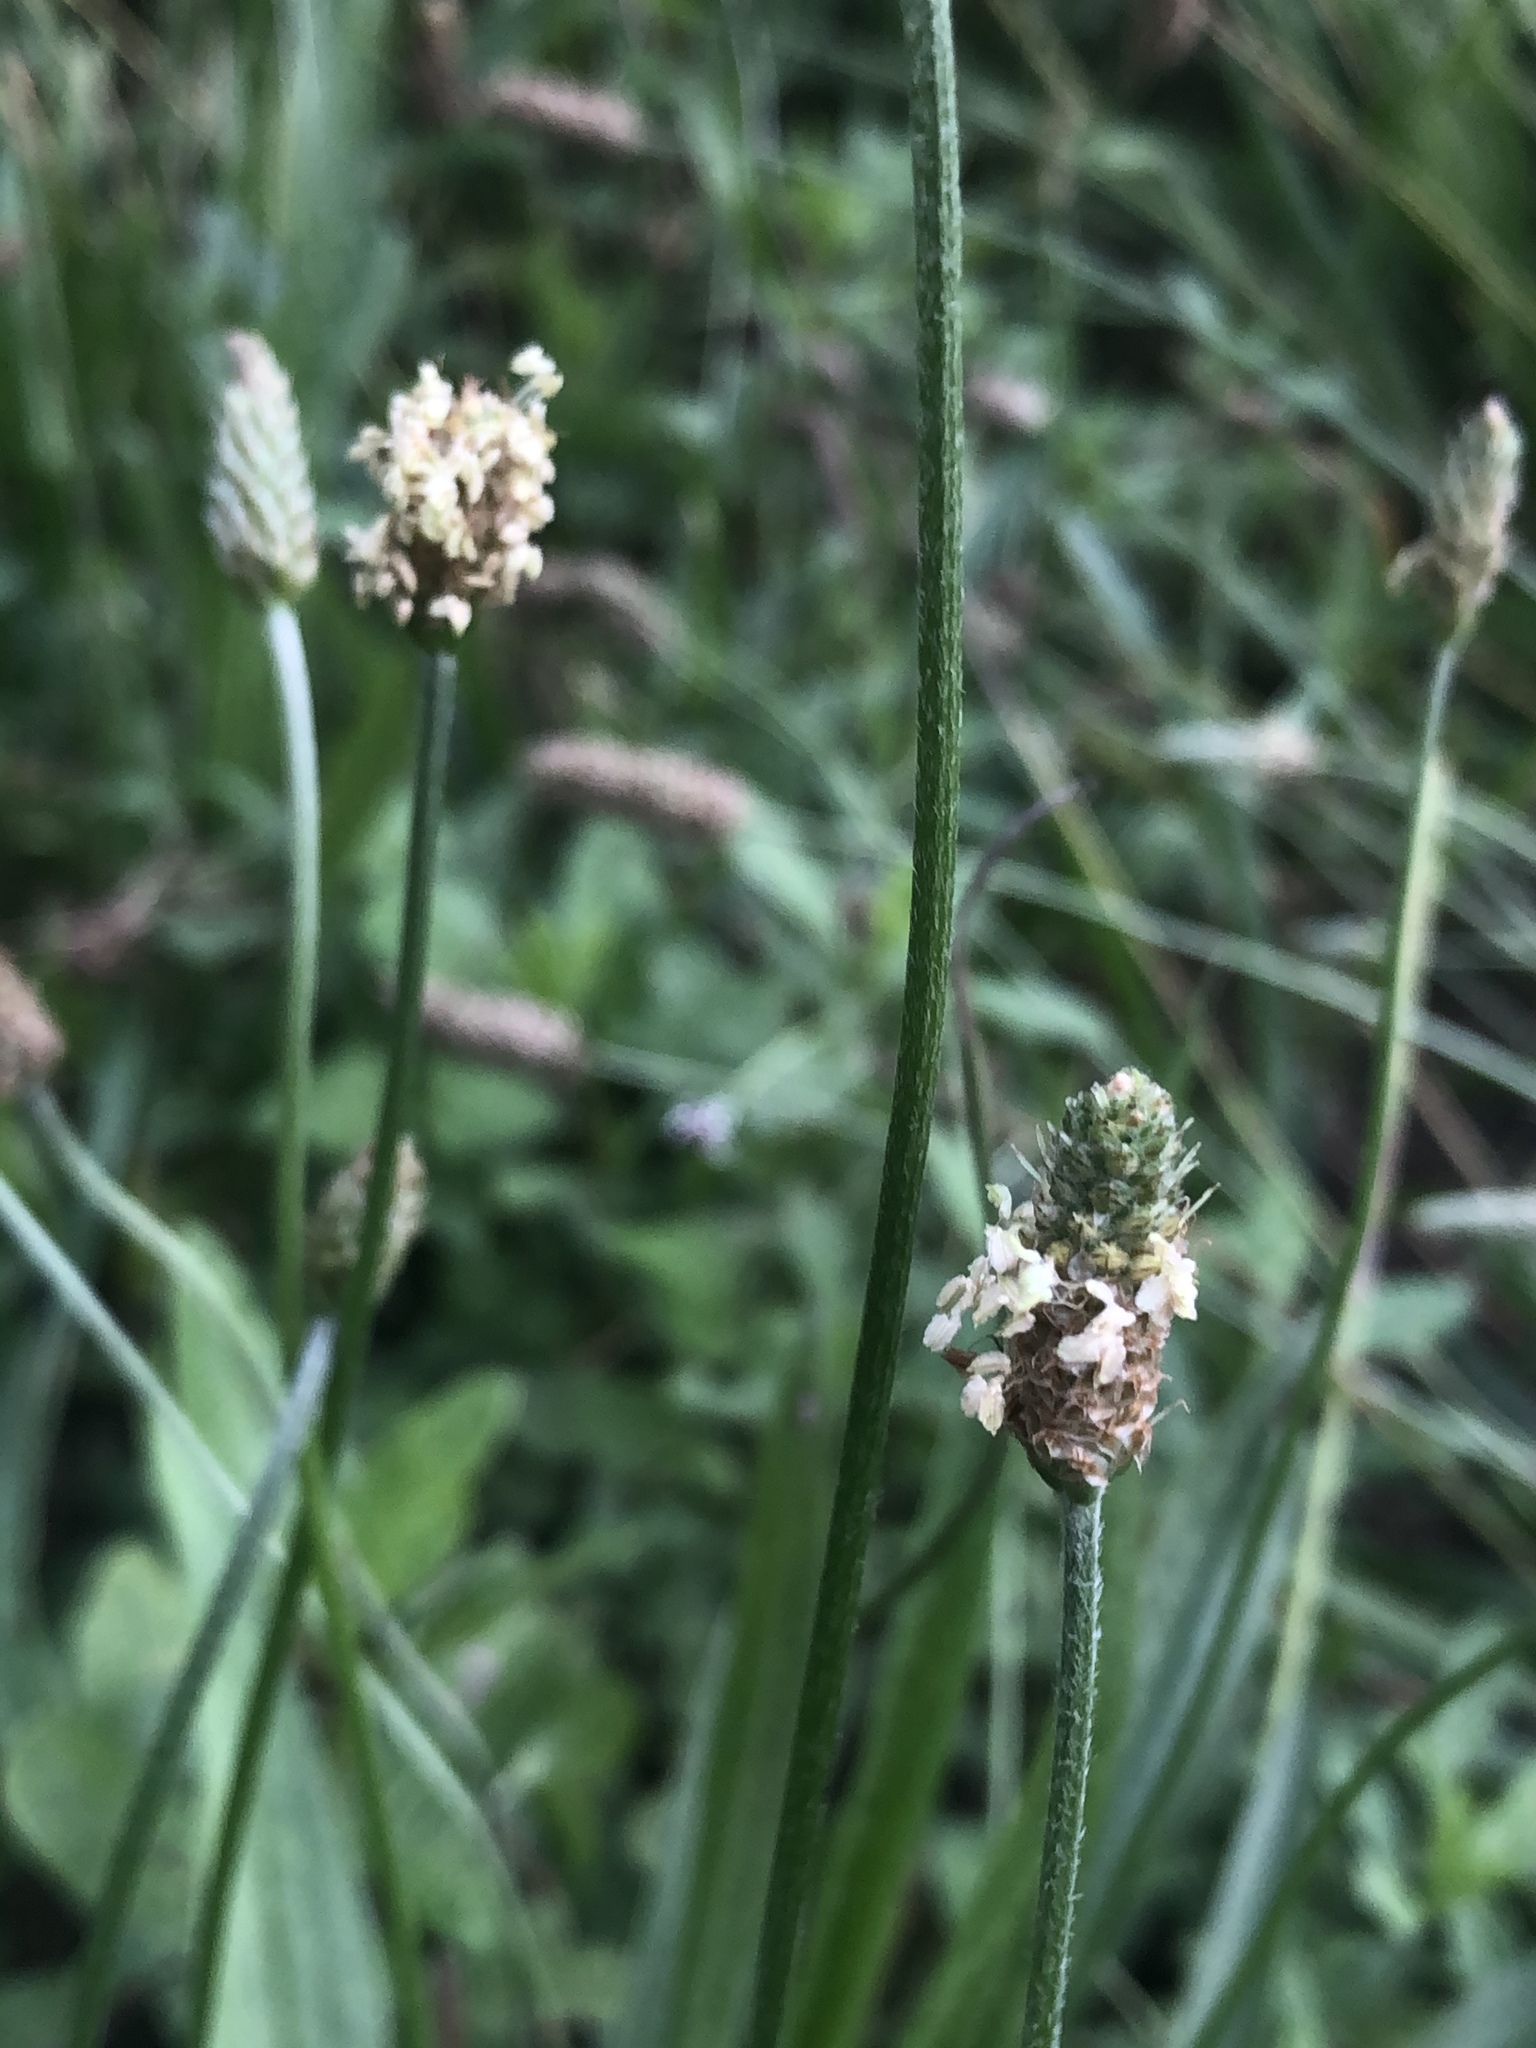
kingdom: Plantae
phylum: Tracheophyta
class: Magnoliopsida
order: Lamiales
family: Plantaginaceae
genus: Plantago
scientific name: Plantago lanceolata
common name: Ribwort plantain
